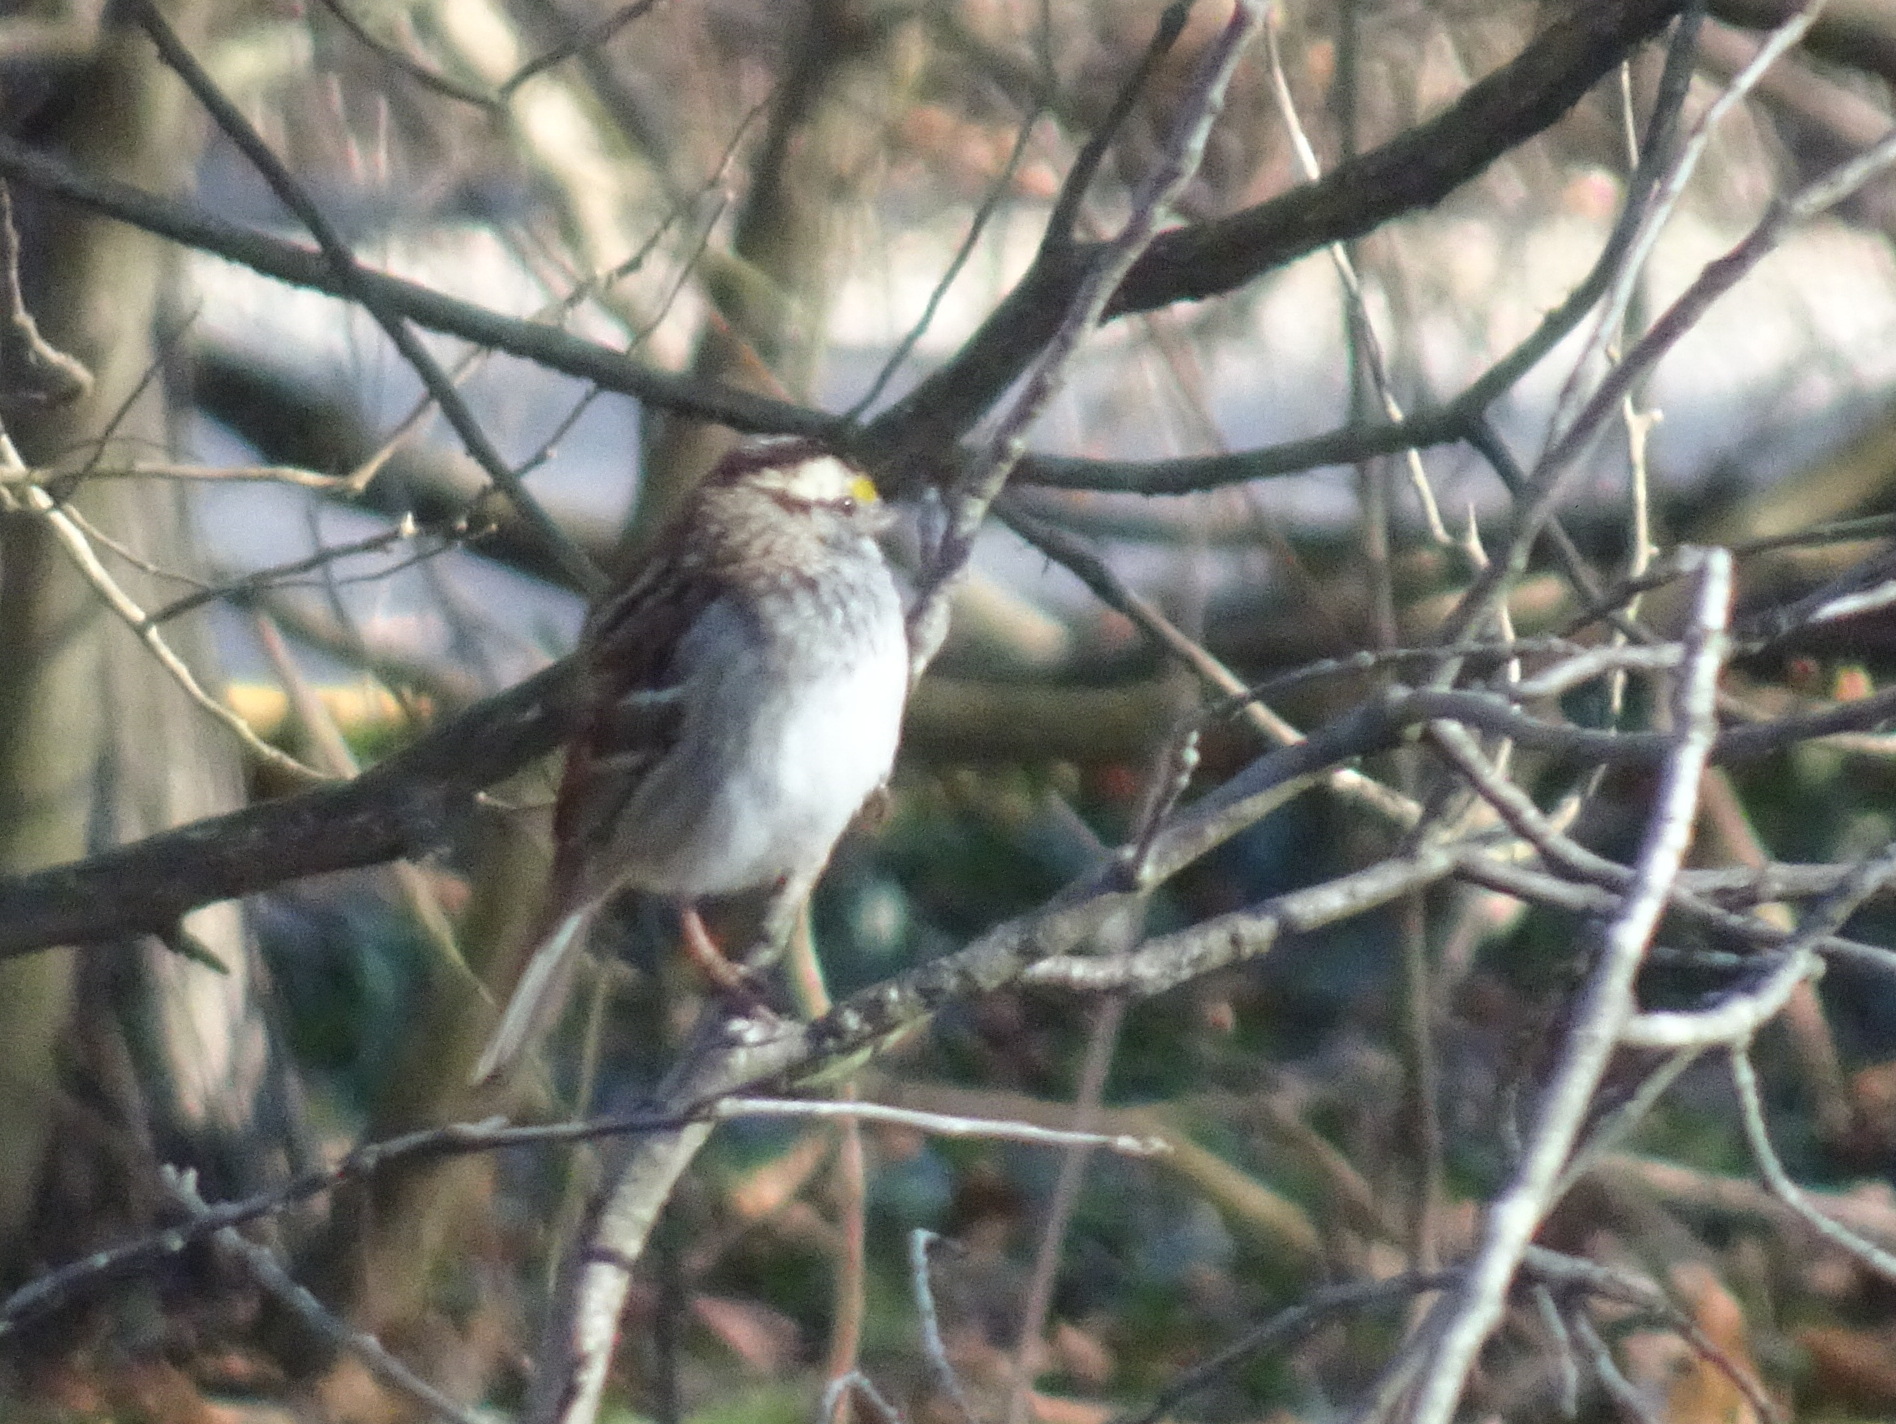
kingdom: Animalia
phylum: Chordata
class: Aves
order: Passeriformes
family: Passerellidae
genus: Zonotrichia
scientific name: Zonotrichia albicollis
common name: White-throated sparrow
